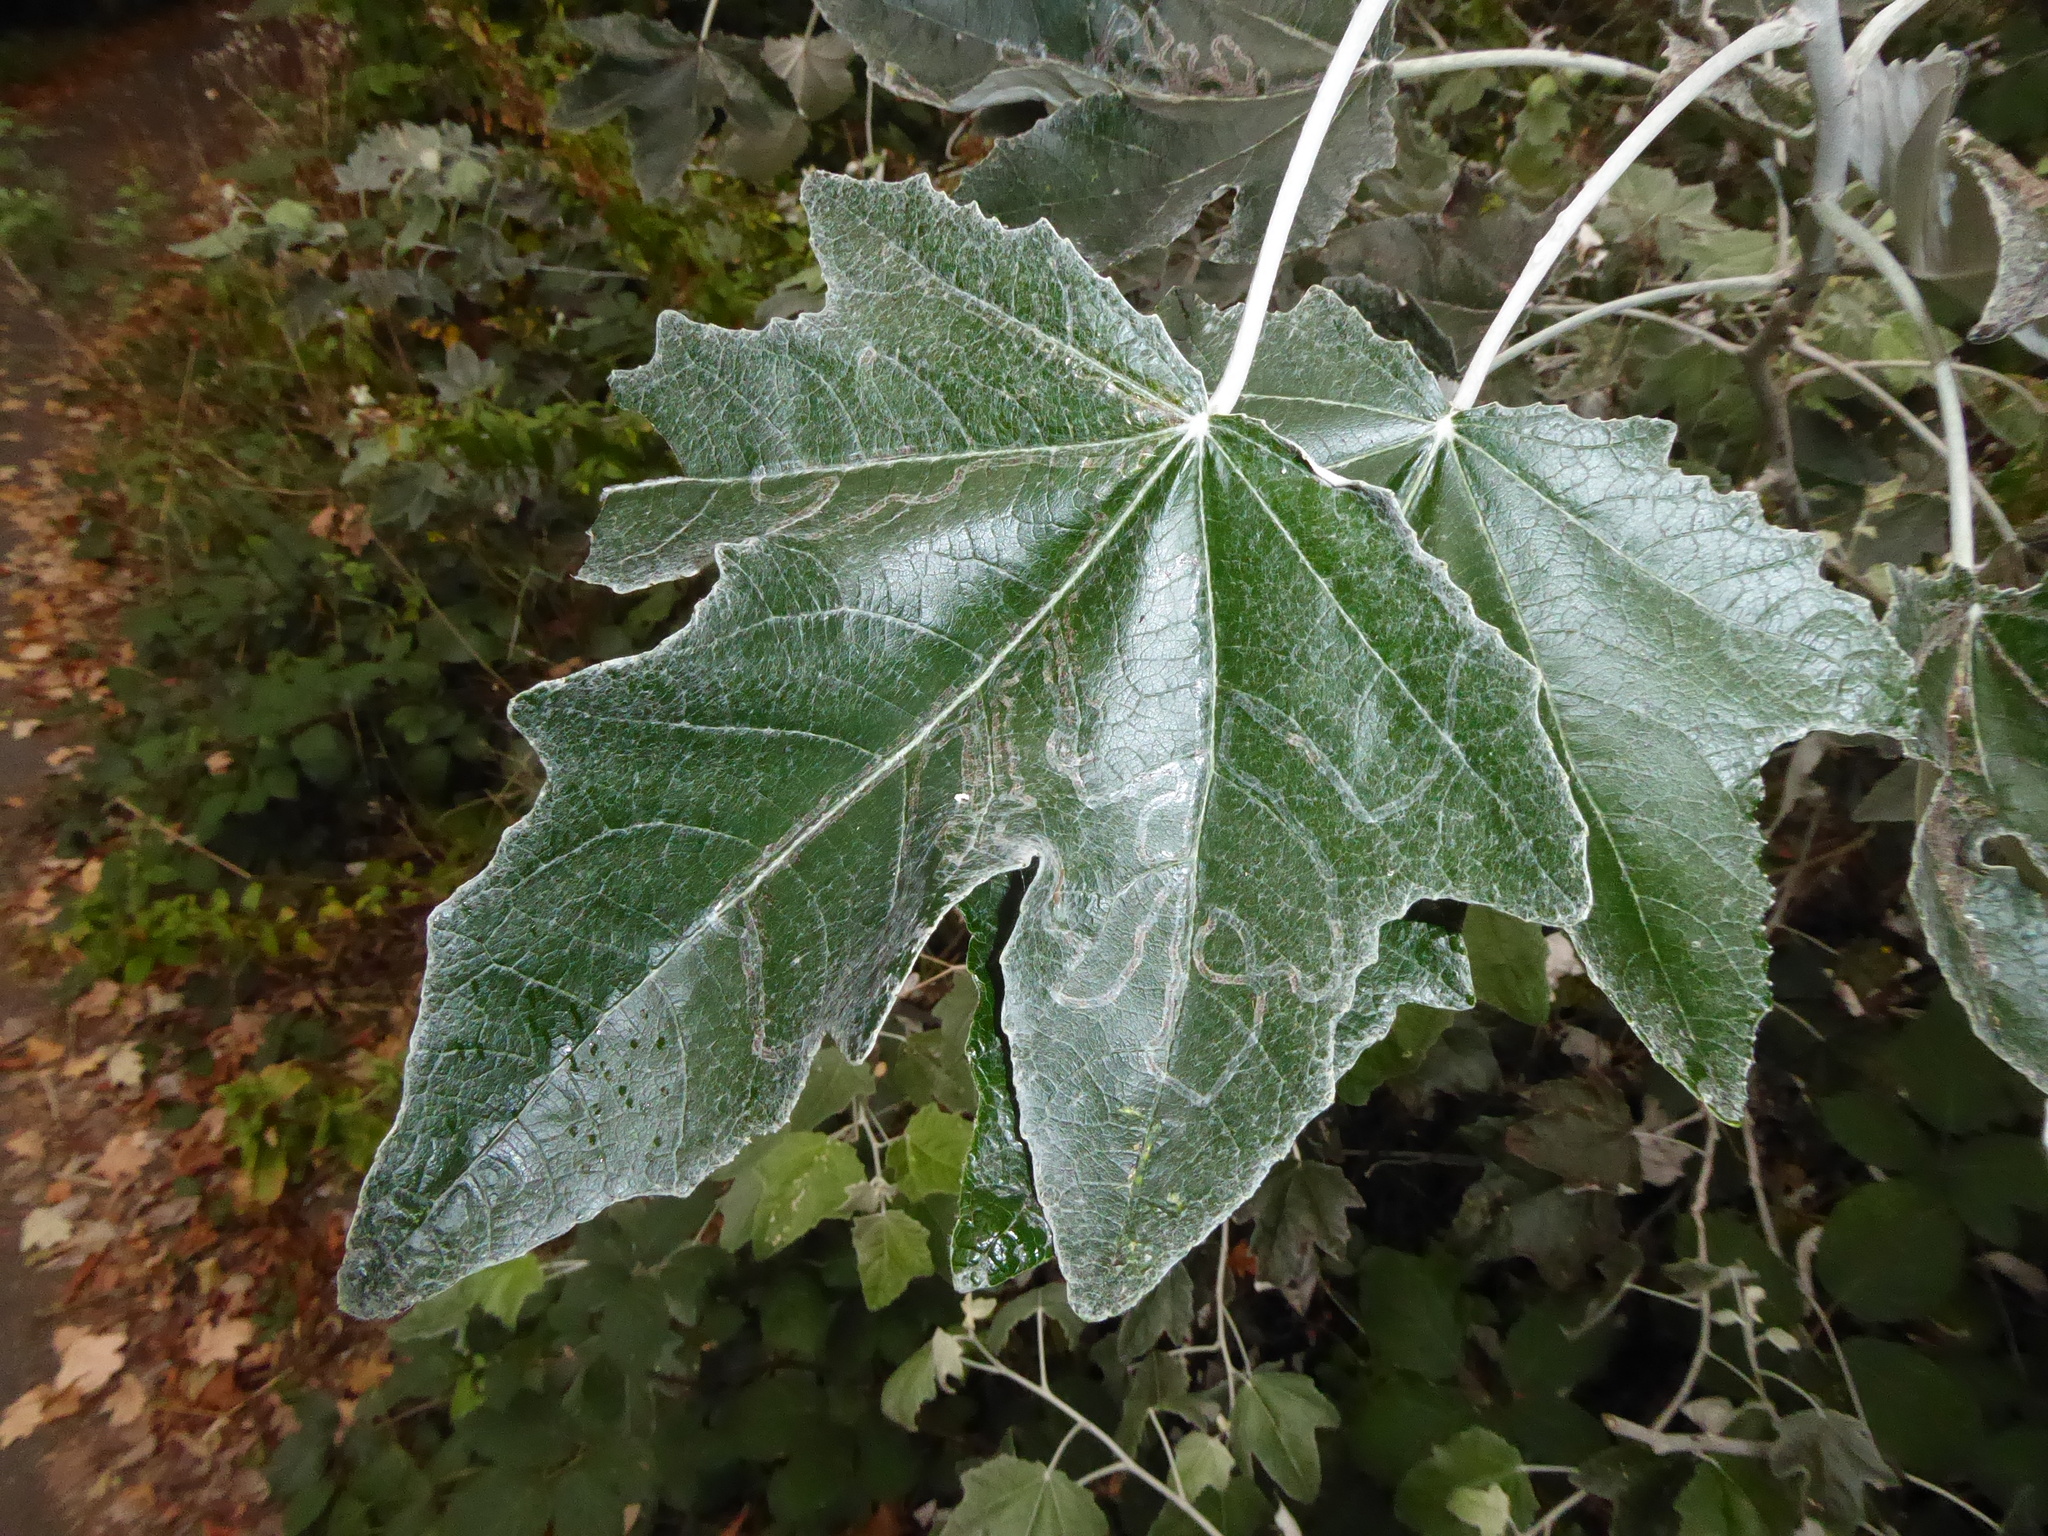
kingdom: Animalia
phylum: Arthropoda
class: Insecta
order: Lepidoptera
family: Gracillariidae
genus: Phyllocnistis
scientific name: Phyllocnistis xenia
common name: Kent bent-wing
